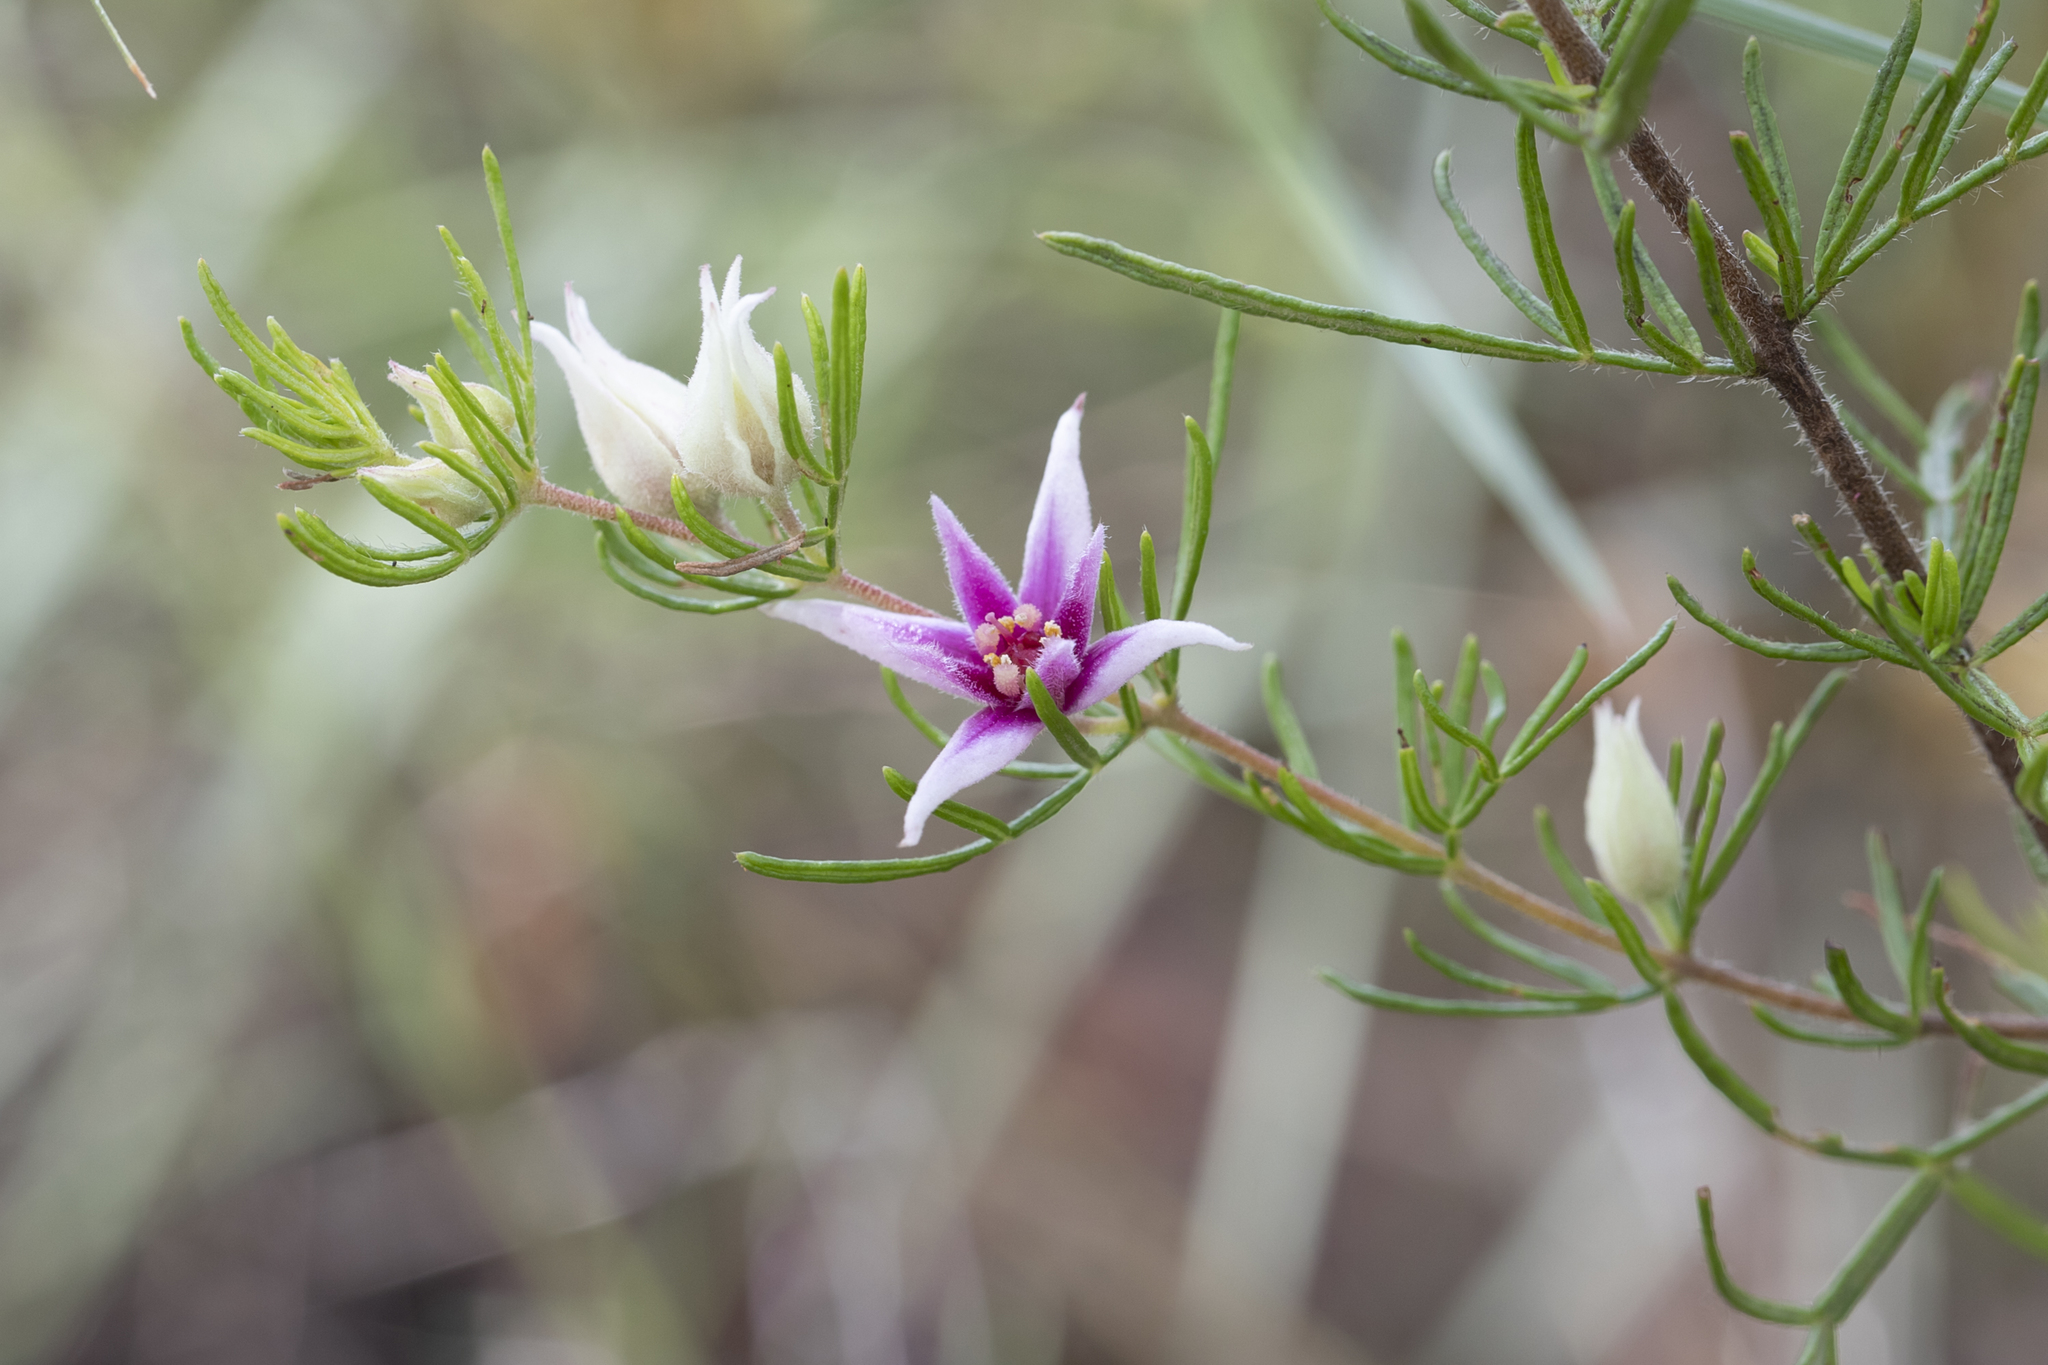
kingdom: Plantae
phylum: Tracheophyta
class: Magnoliopsida
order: Sapindales
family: Rutaceae
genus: Boronia
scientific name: Boronia lanuginosa
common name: Red boronia
